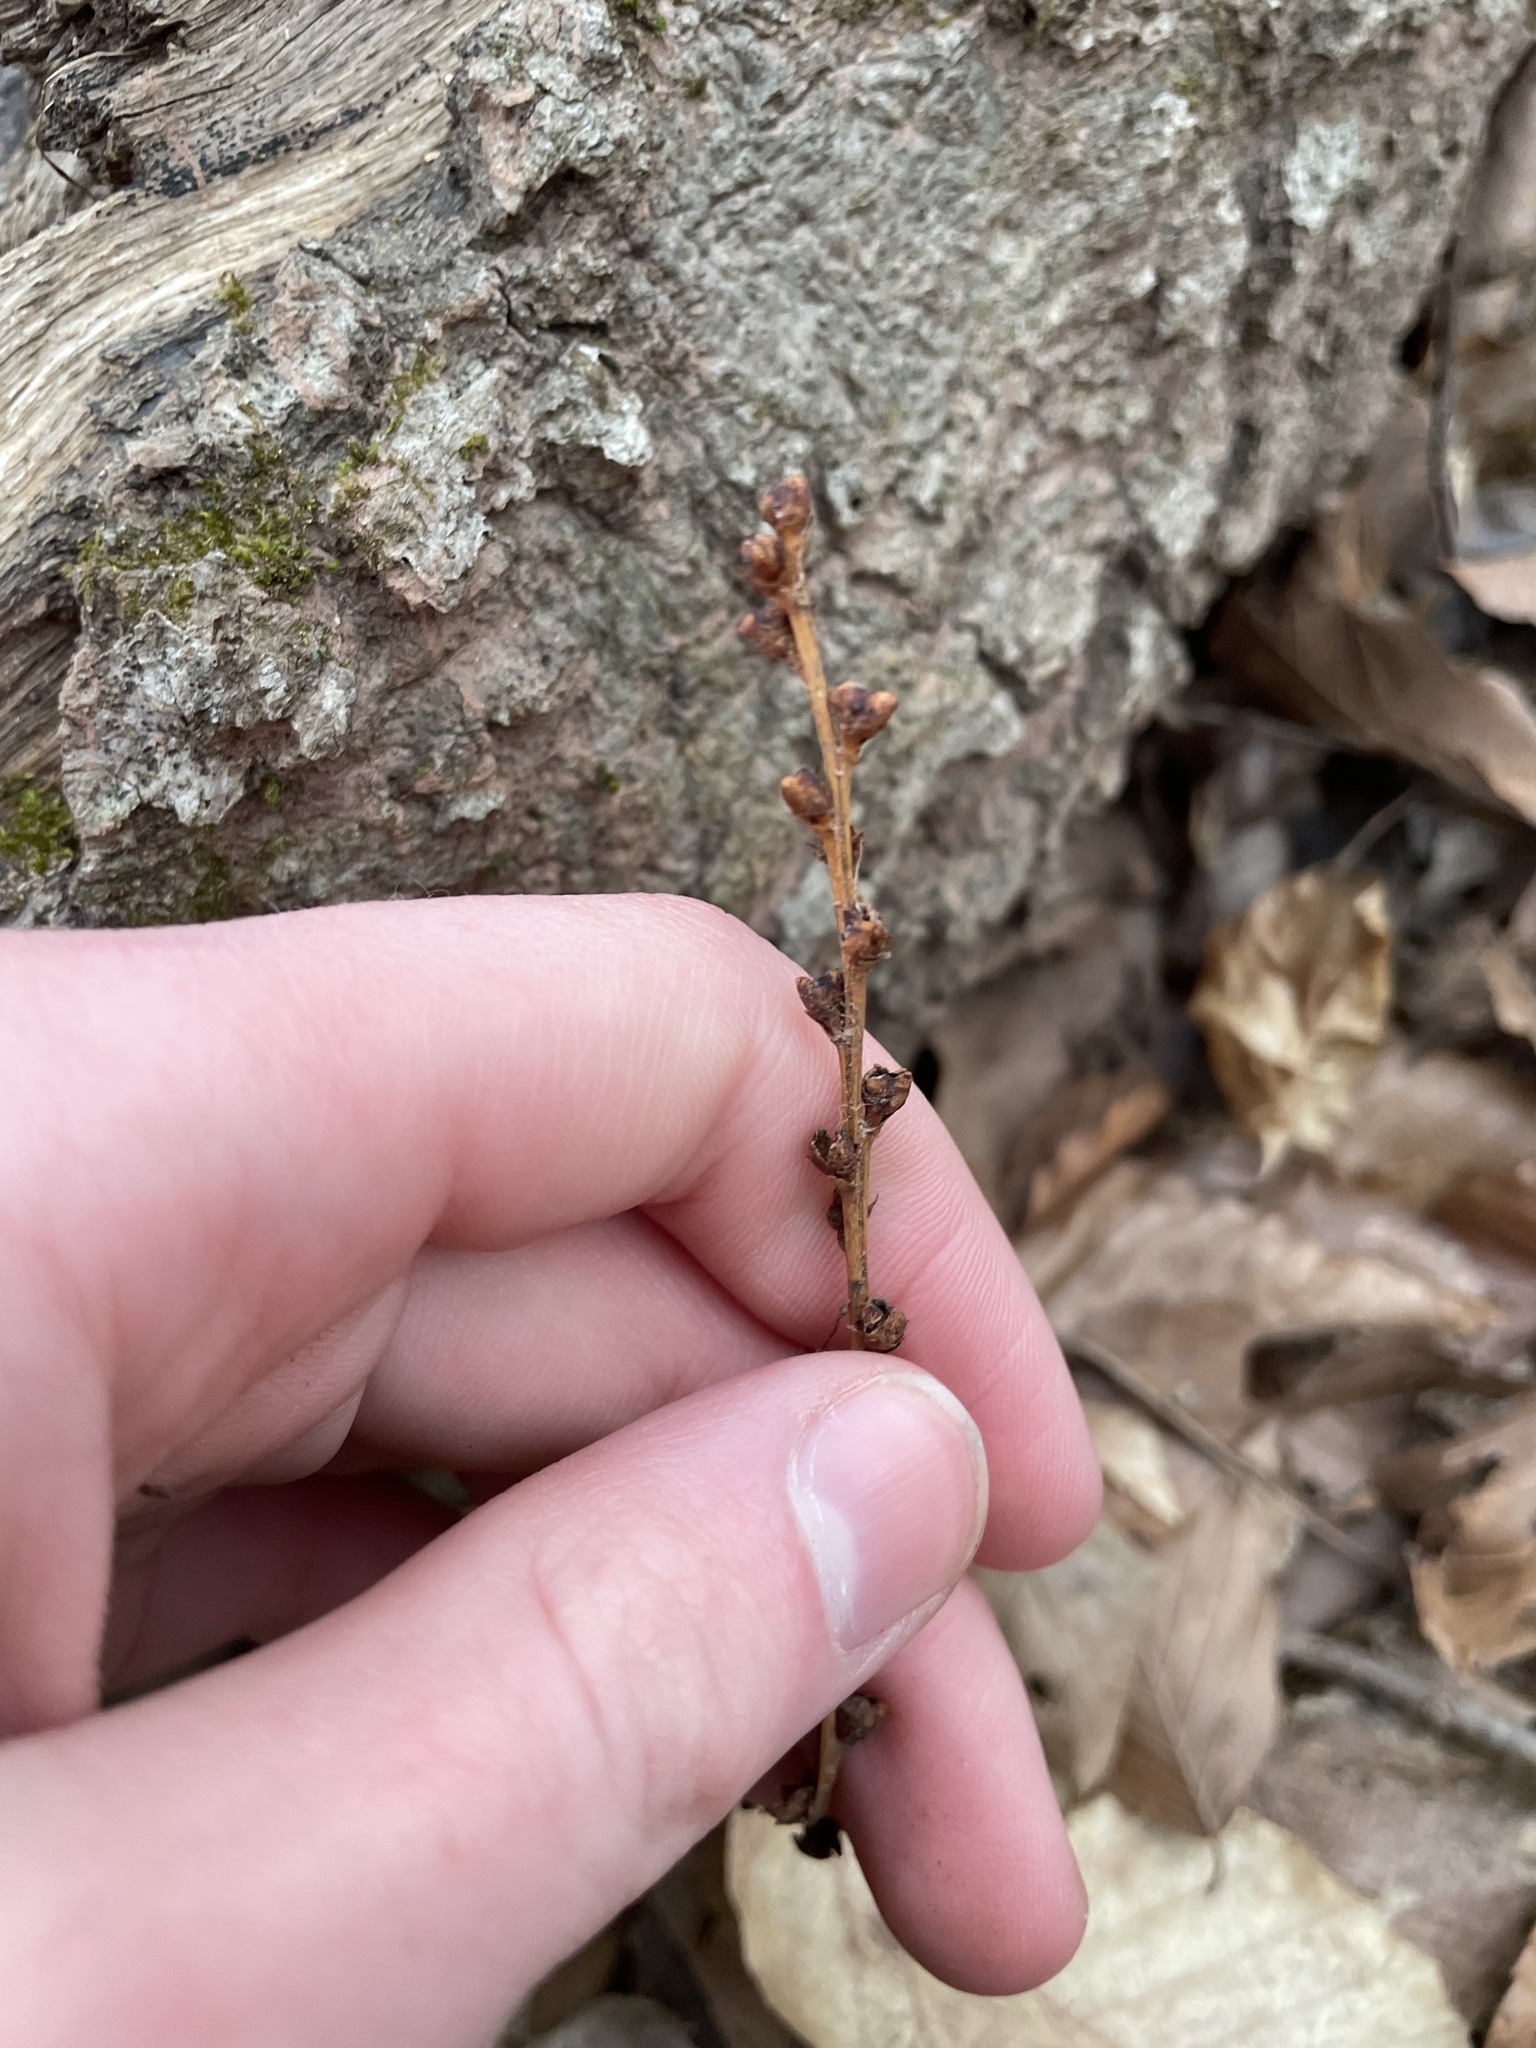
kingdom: Plantae
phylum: Tracheophyta
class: Magnoliopsida
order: Lamiales
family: Orobanchaceae
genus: Epifagus
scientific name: Epifagus virginiana
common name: Beechdrops
